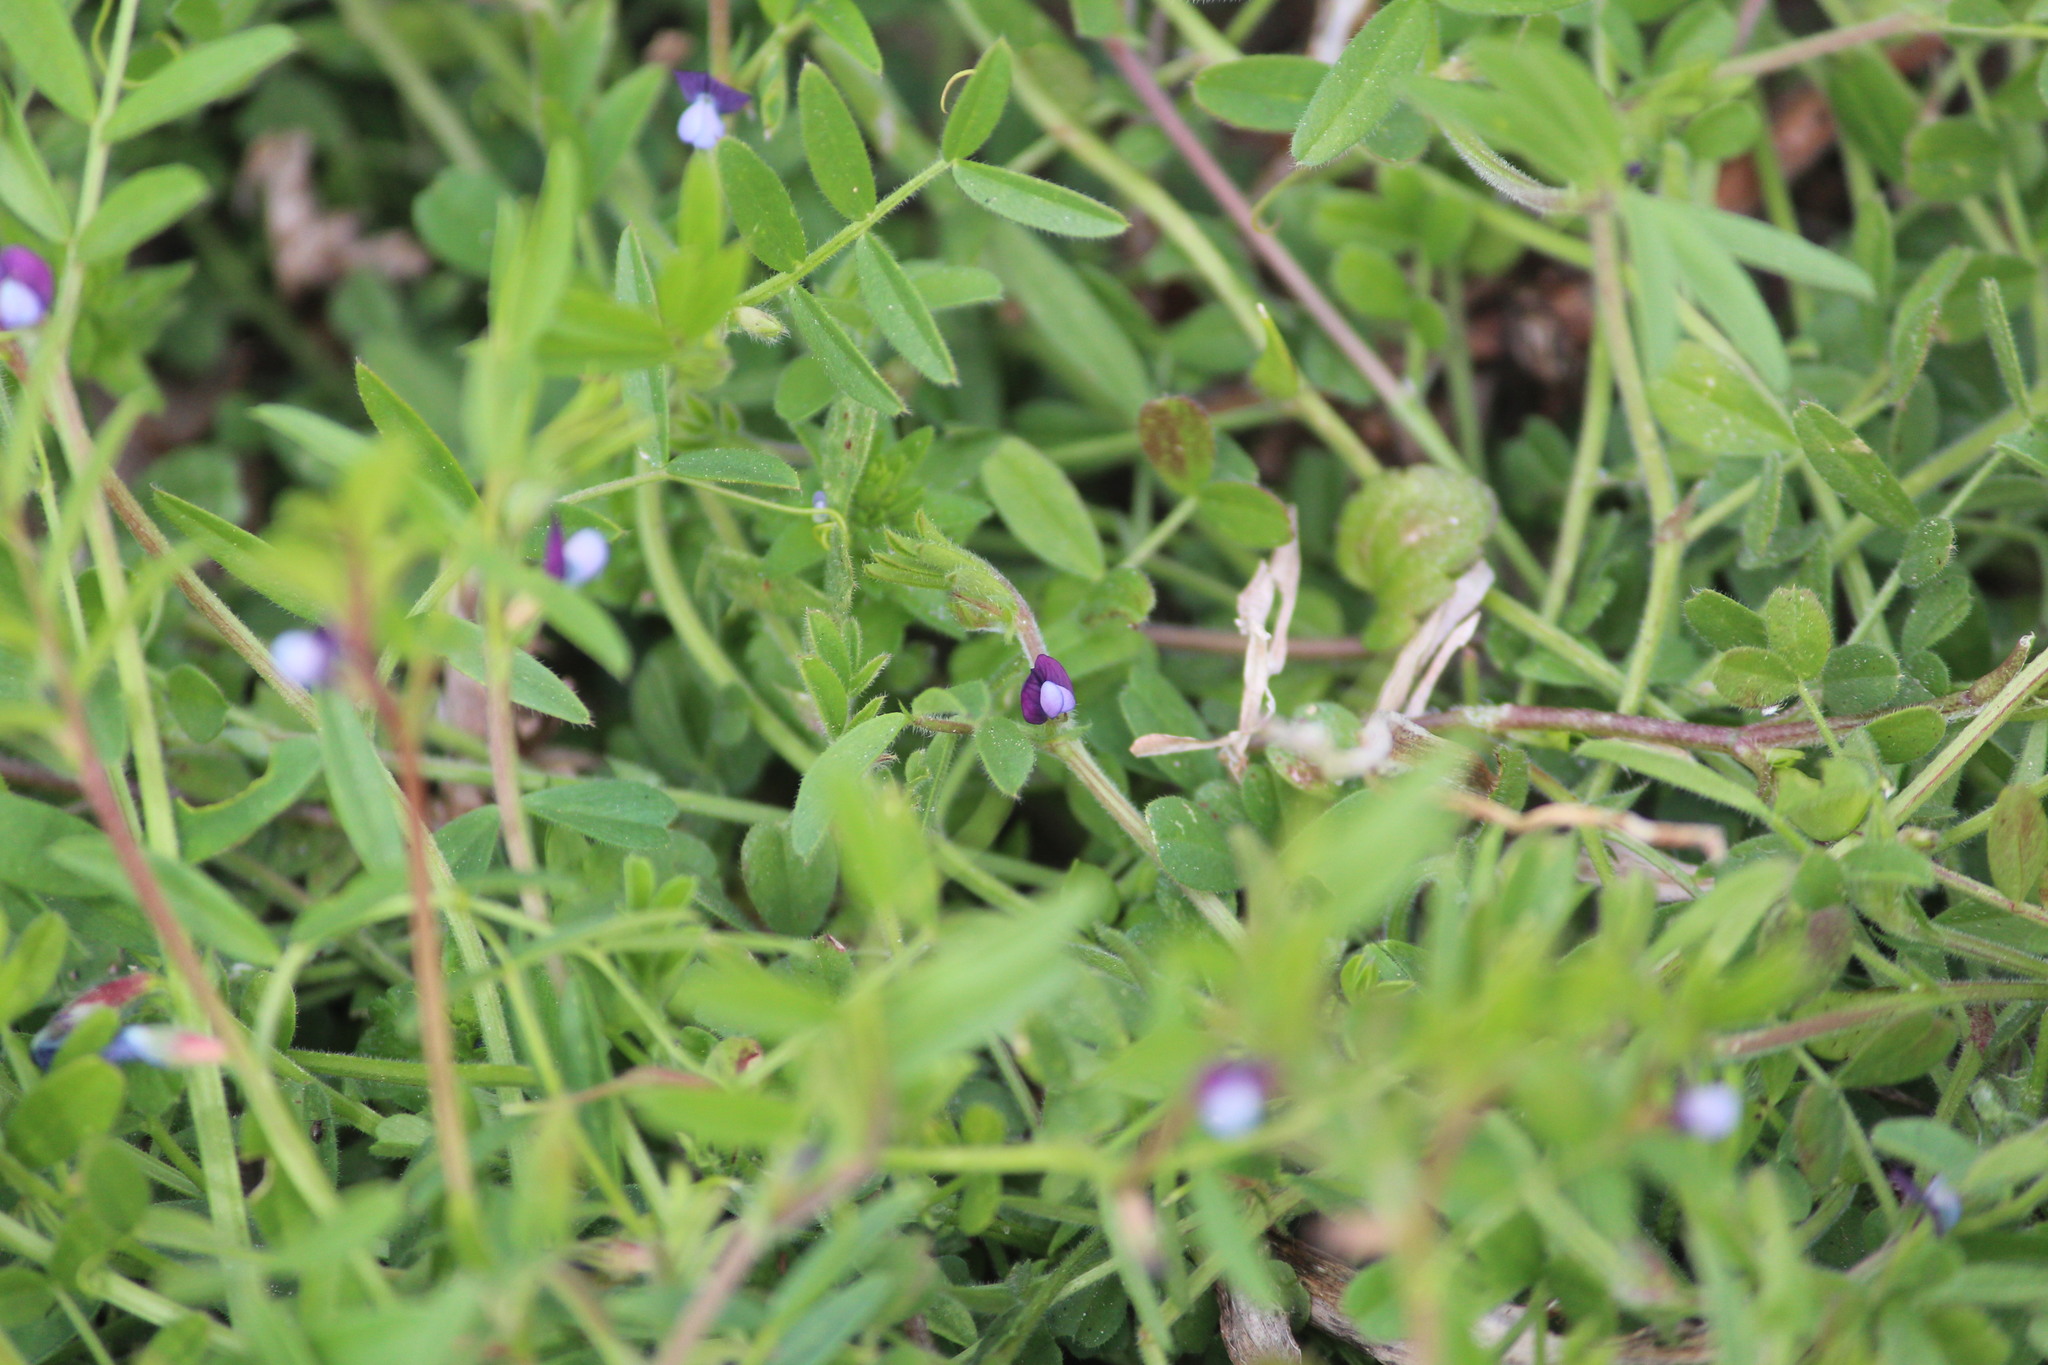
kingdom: Plantae
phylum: Tracheophyta
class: Magnoliopsida
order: Fabales
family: Fabaceae
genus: Vicia
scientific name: Vicia lathyroides
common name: Spring vetch
